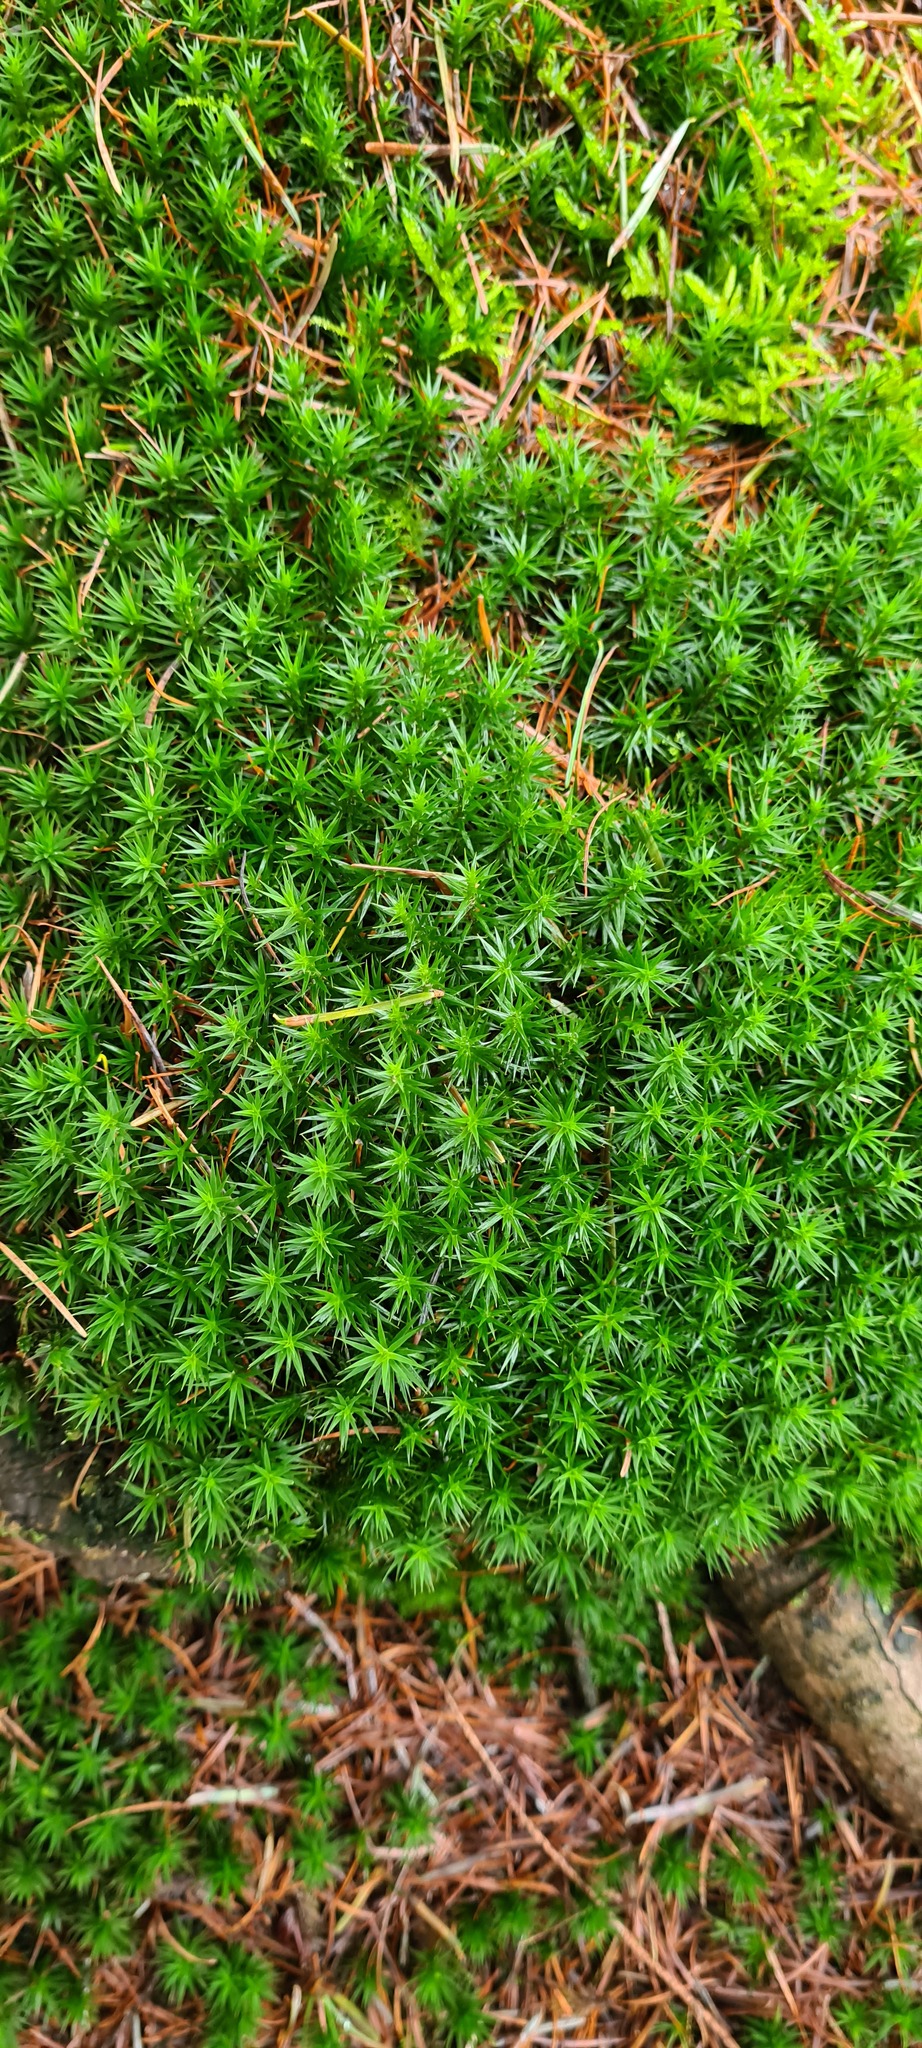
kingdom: Plantae
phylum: Bryophyta
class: Polytrichopsida
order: Polytrichales
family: Polytrichaceae
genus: Polytrichum
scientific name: Polytrichum formosum
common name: Bank haircap moss
